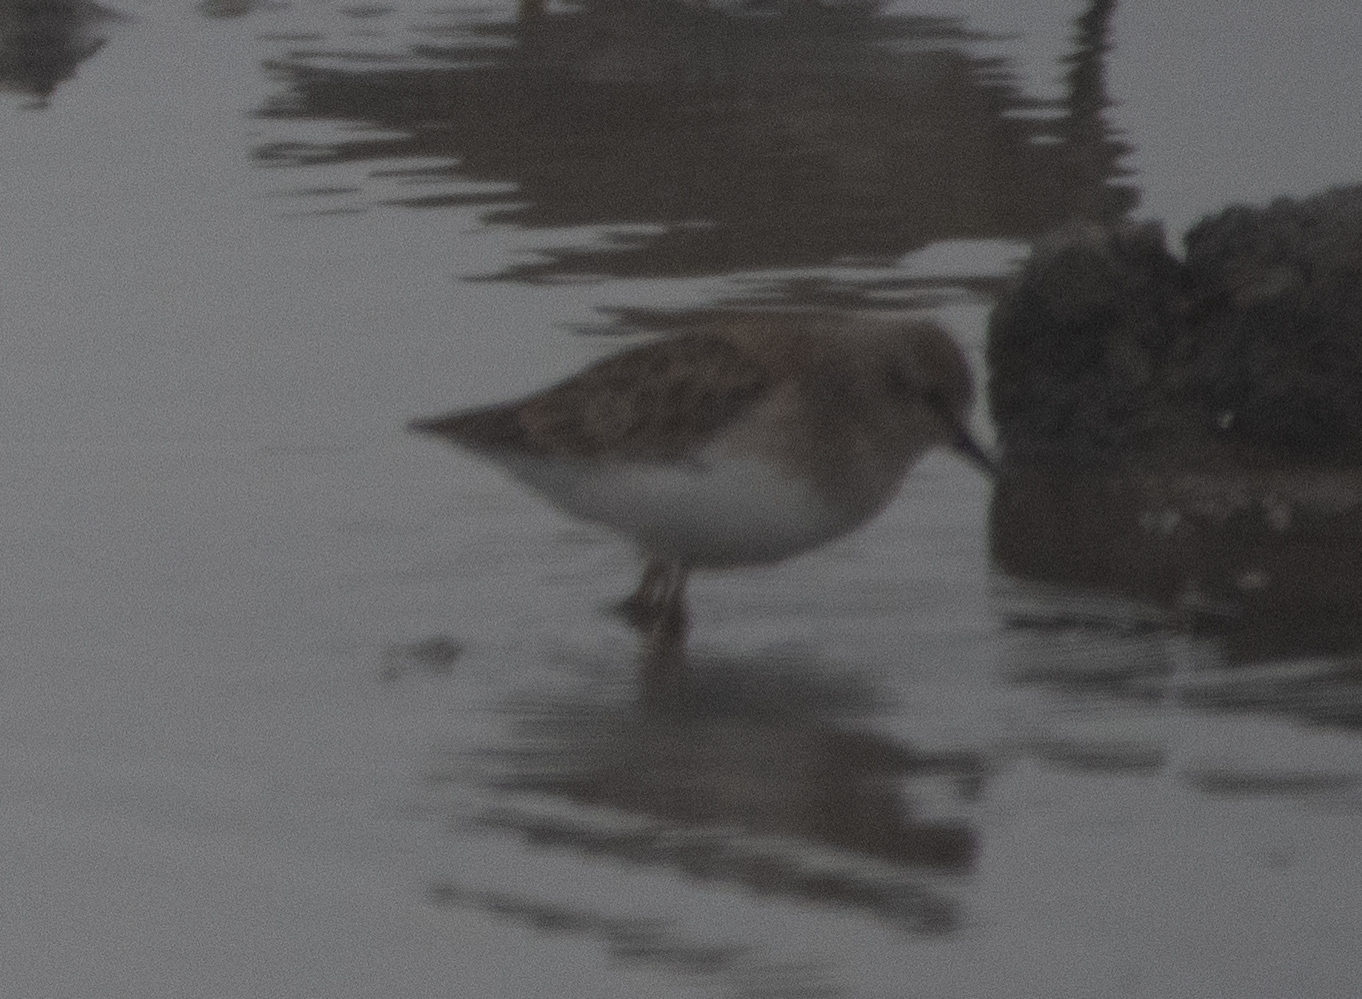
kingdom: Animalia
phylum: Chordata
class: Aves
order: Charadriiformes
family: Scolopacidae
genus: Calidris
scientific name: Calidris minutilla
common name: Least sandpiper
